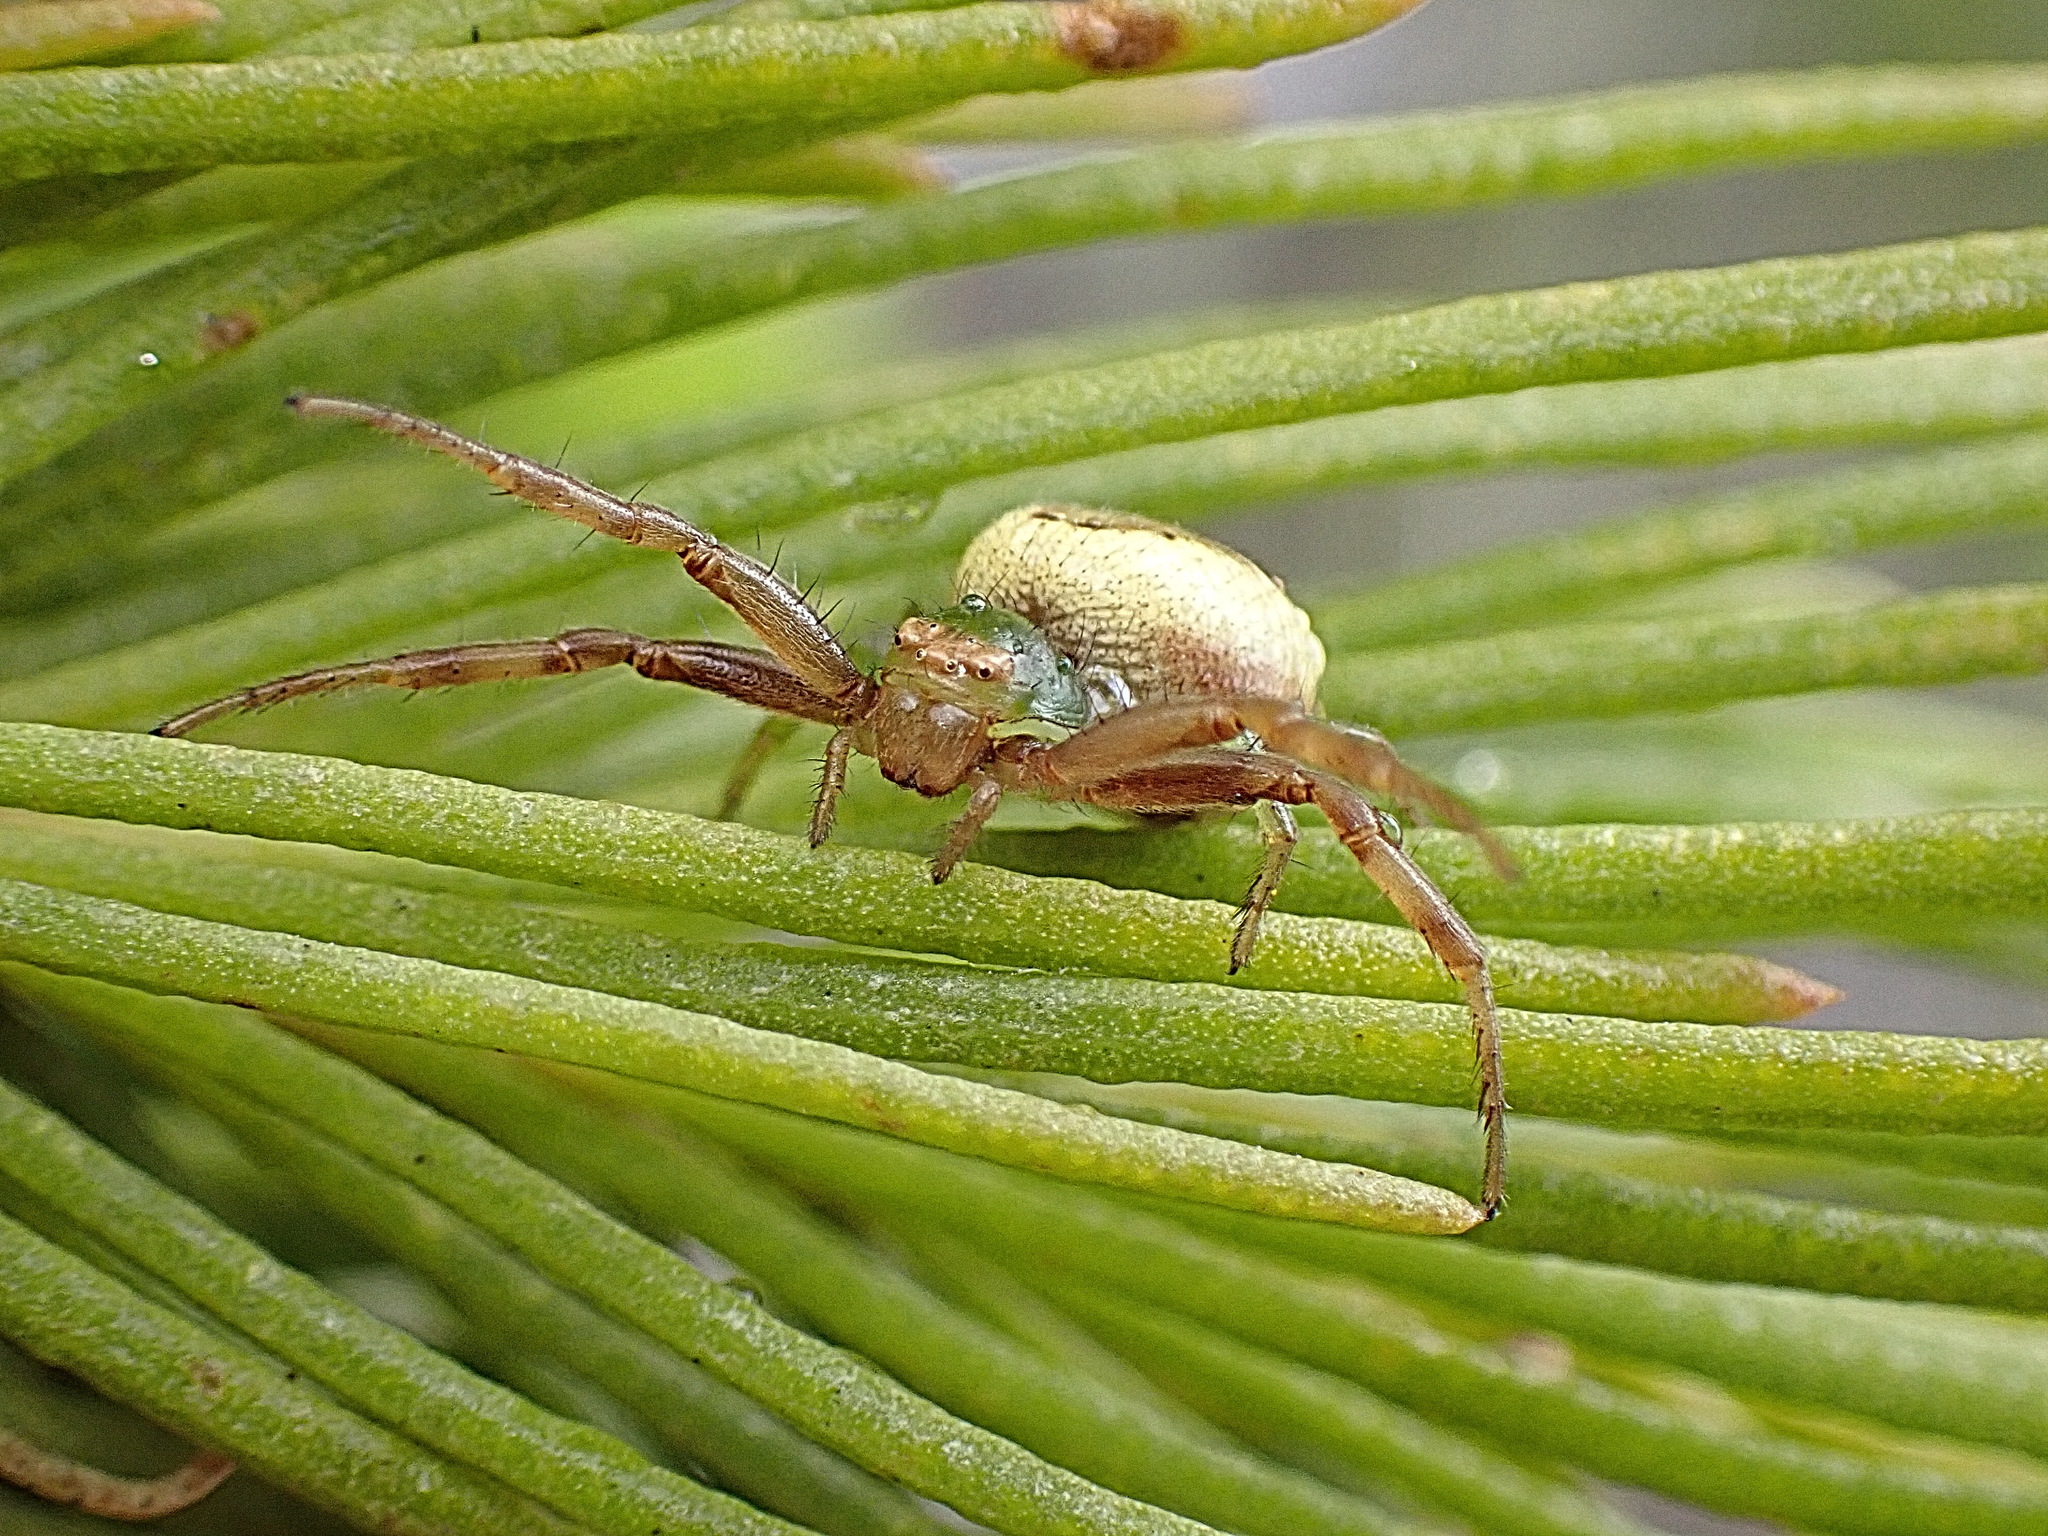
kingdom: Animalia
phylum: Arthropoda
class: Arachnida
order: Araneae
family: Thomisidae
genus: Synema
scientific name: Synema imitatrix
